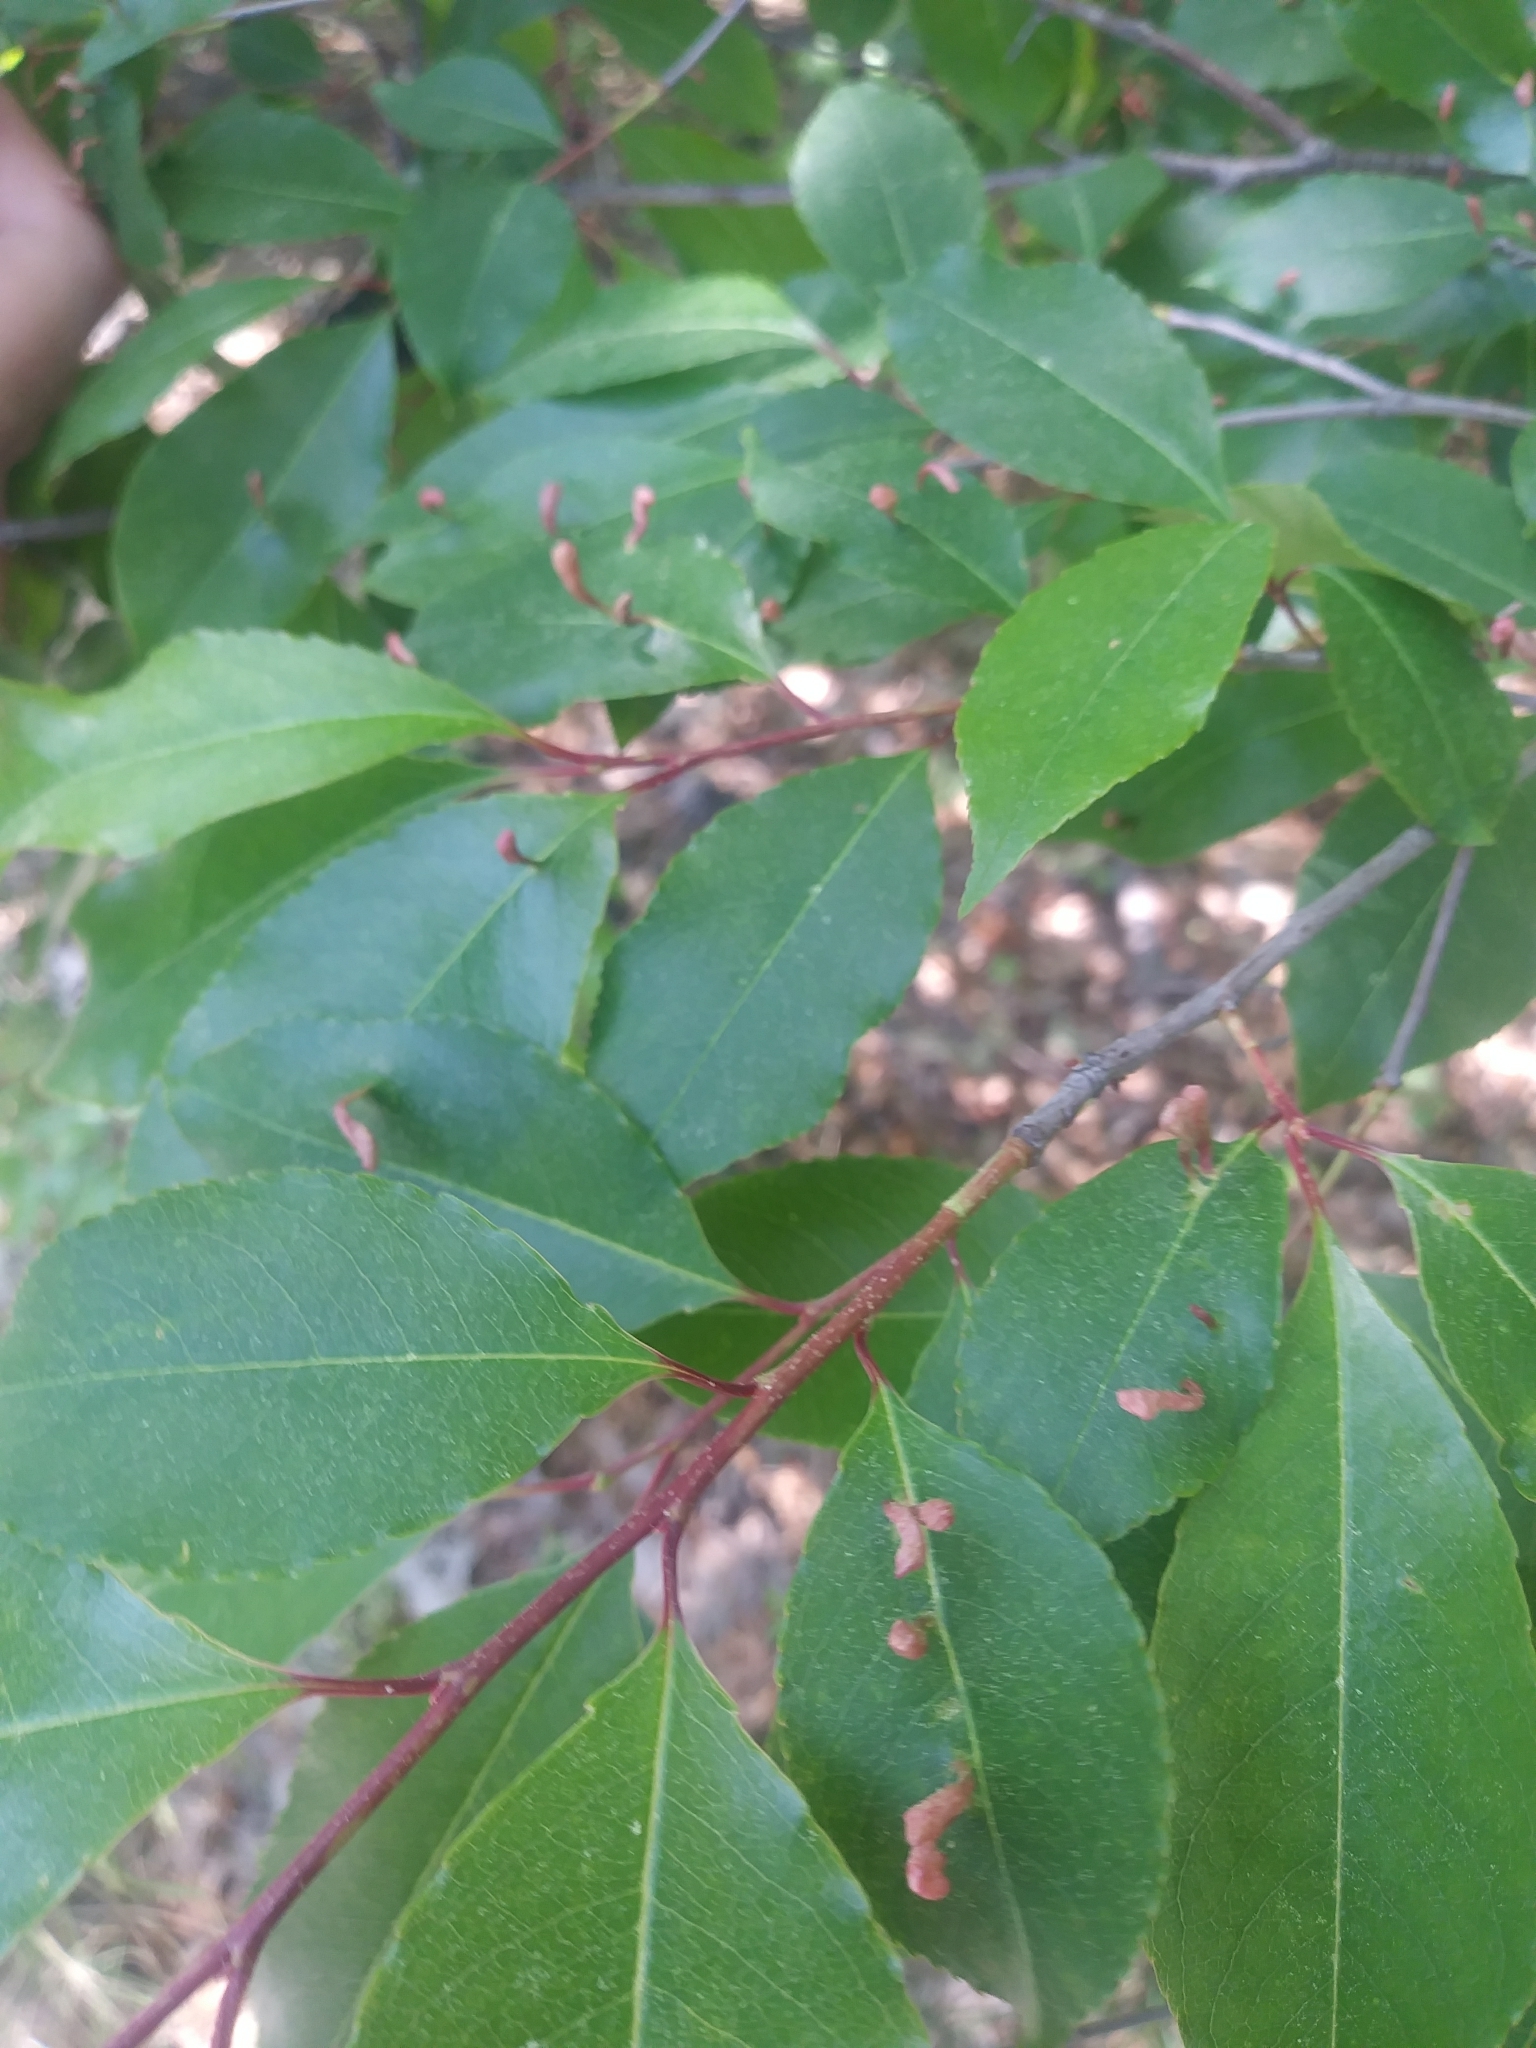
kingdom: Animalia
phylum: Arthropoda
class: Arachnida
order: Trombidiformes
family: Eriophyidae
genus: Eriophyes
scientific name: Eriophyes
